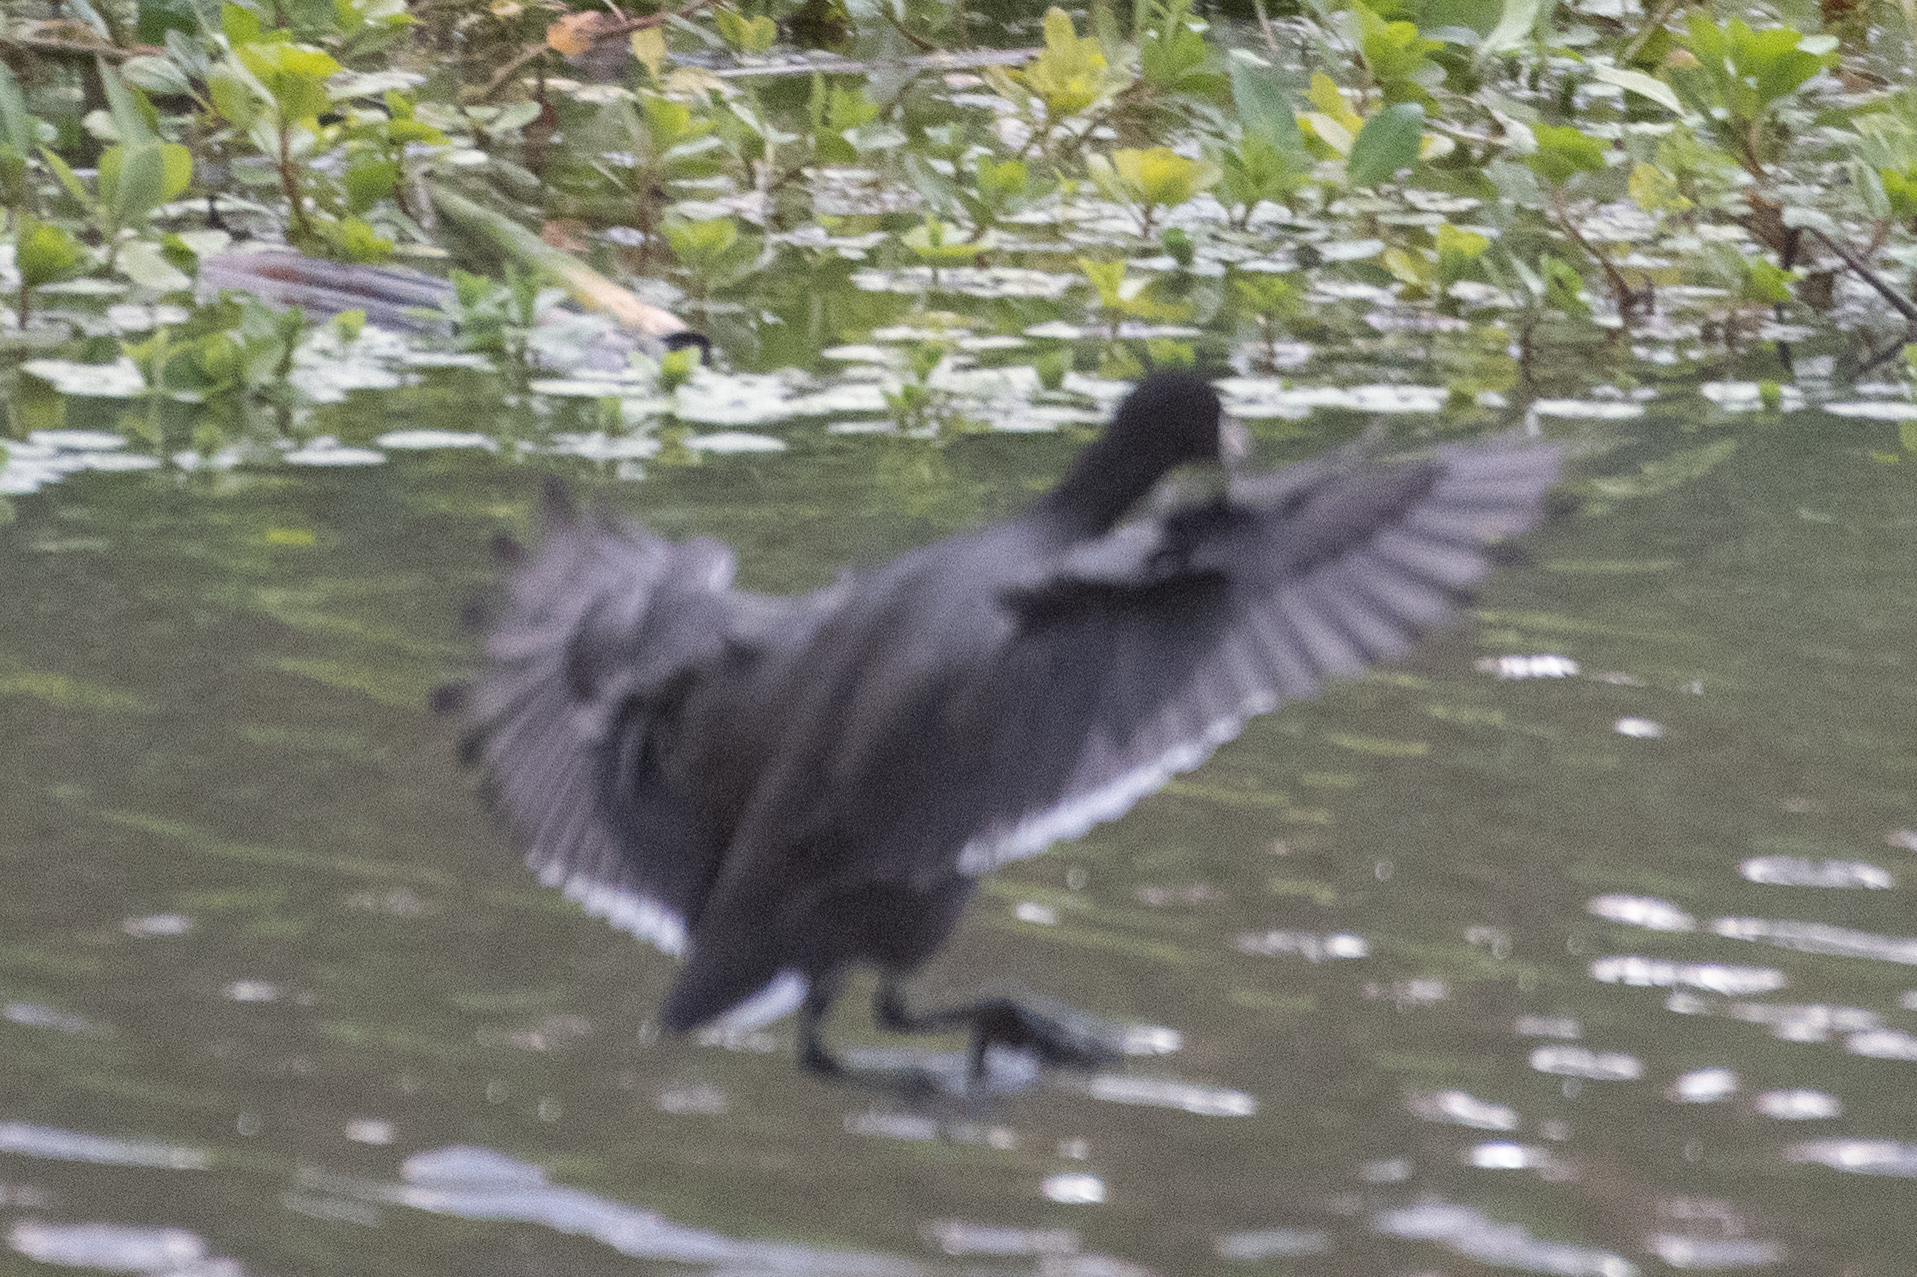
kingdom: Animalia
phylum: Chordata
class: Aves
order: Gruiformes
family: Rallidae
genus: Fulica
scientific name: Fulica americana
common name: American coot
